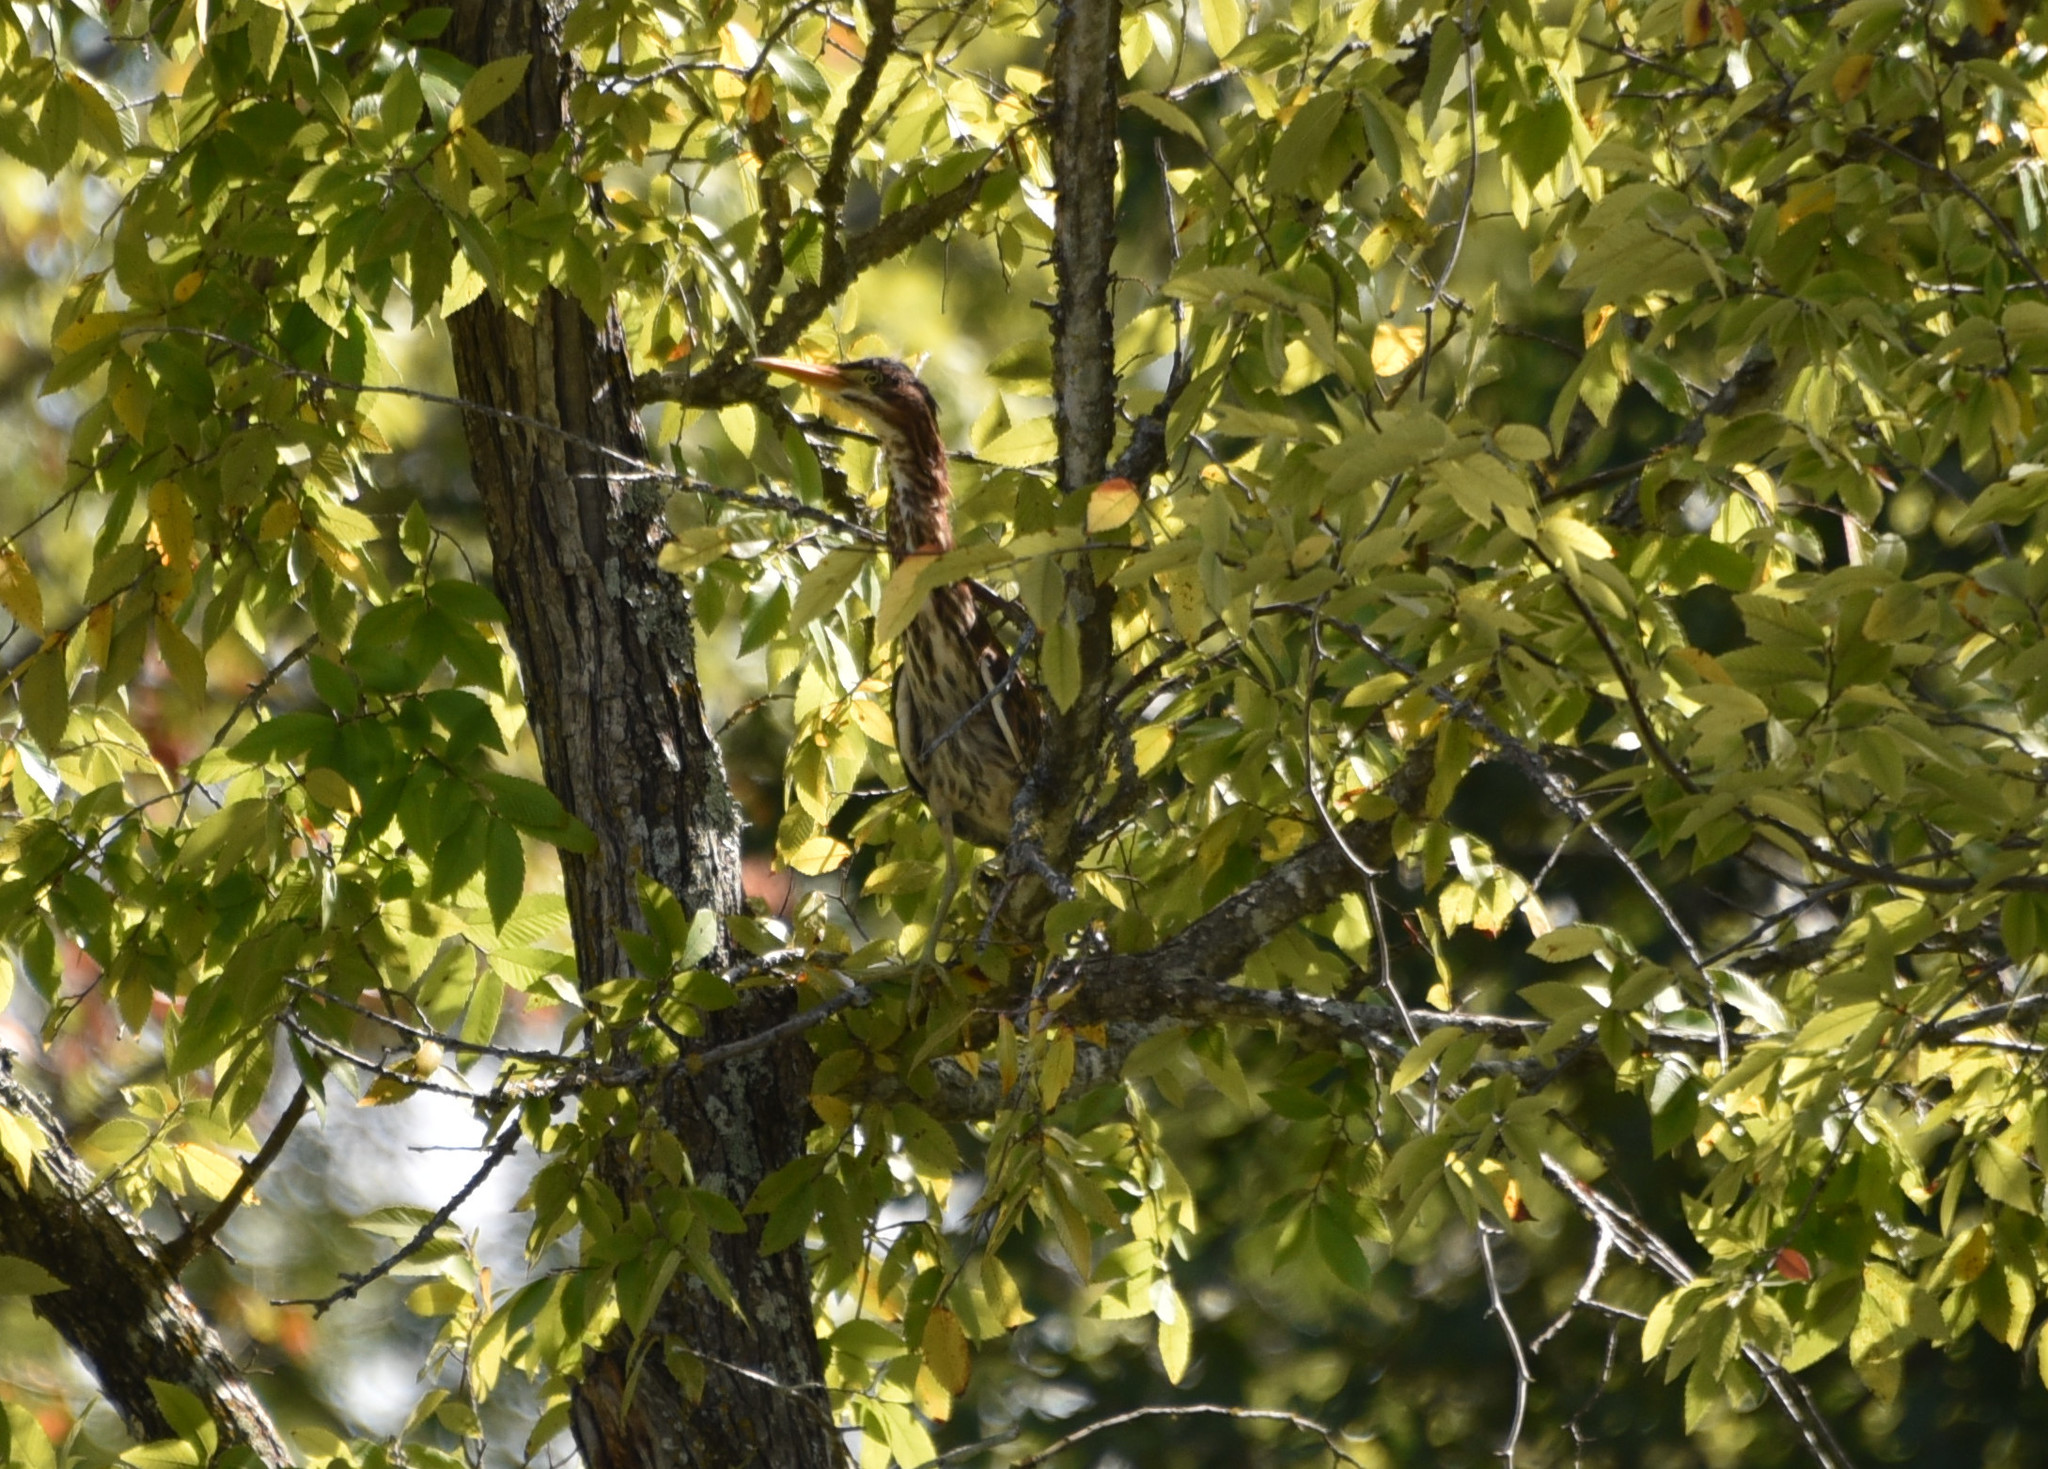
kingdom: Animalia
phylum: Chordata
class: Aves
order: Pelecaniformes
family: Ardeidae
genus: Butorides
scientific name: Butorides virescens
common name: Green heron
